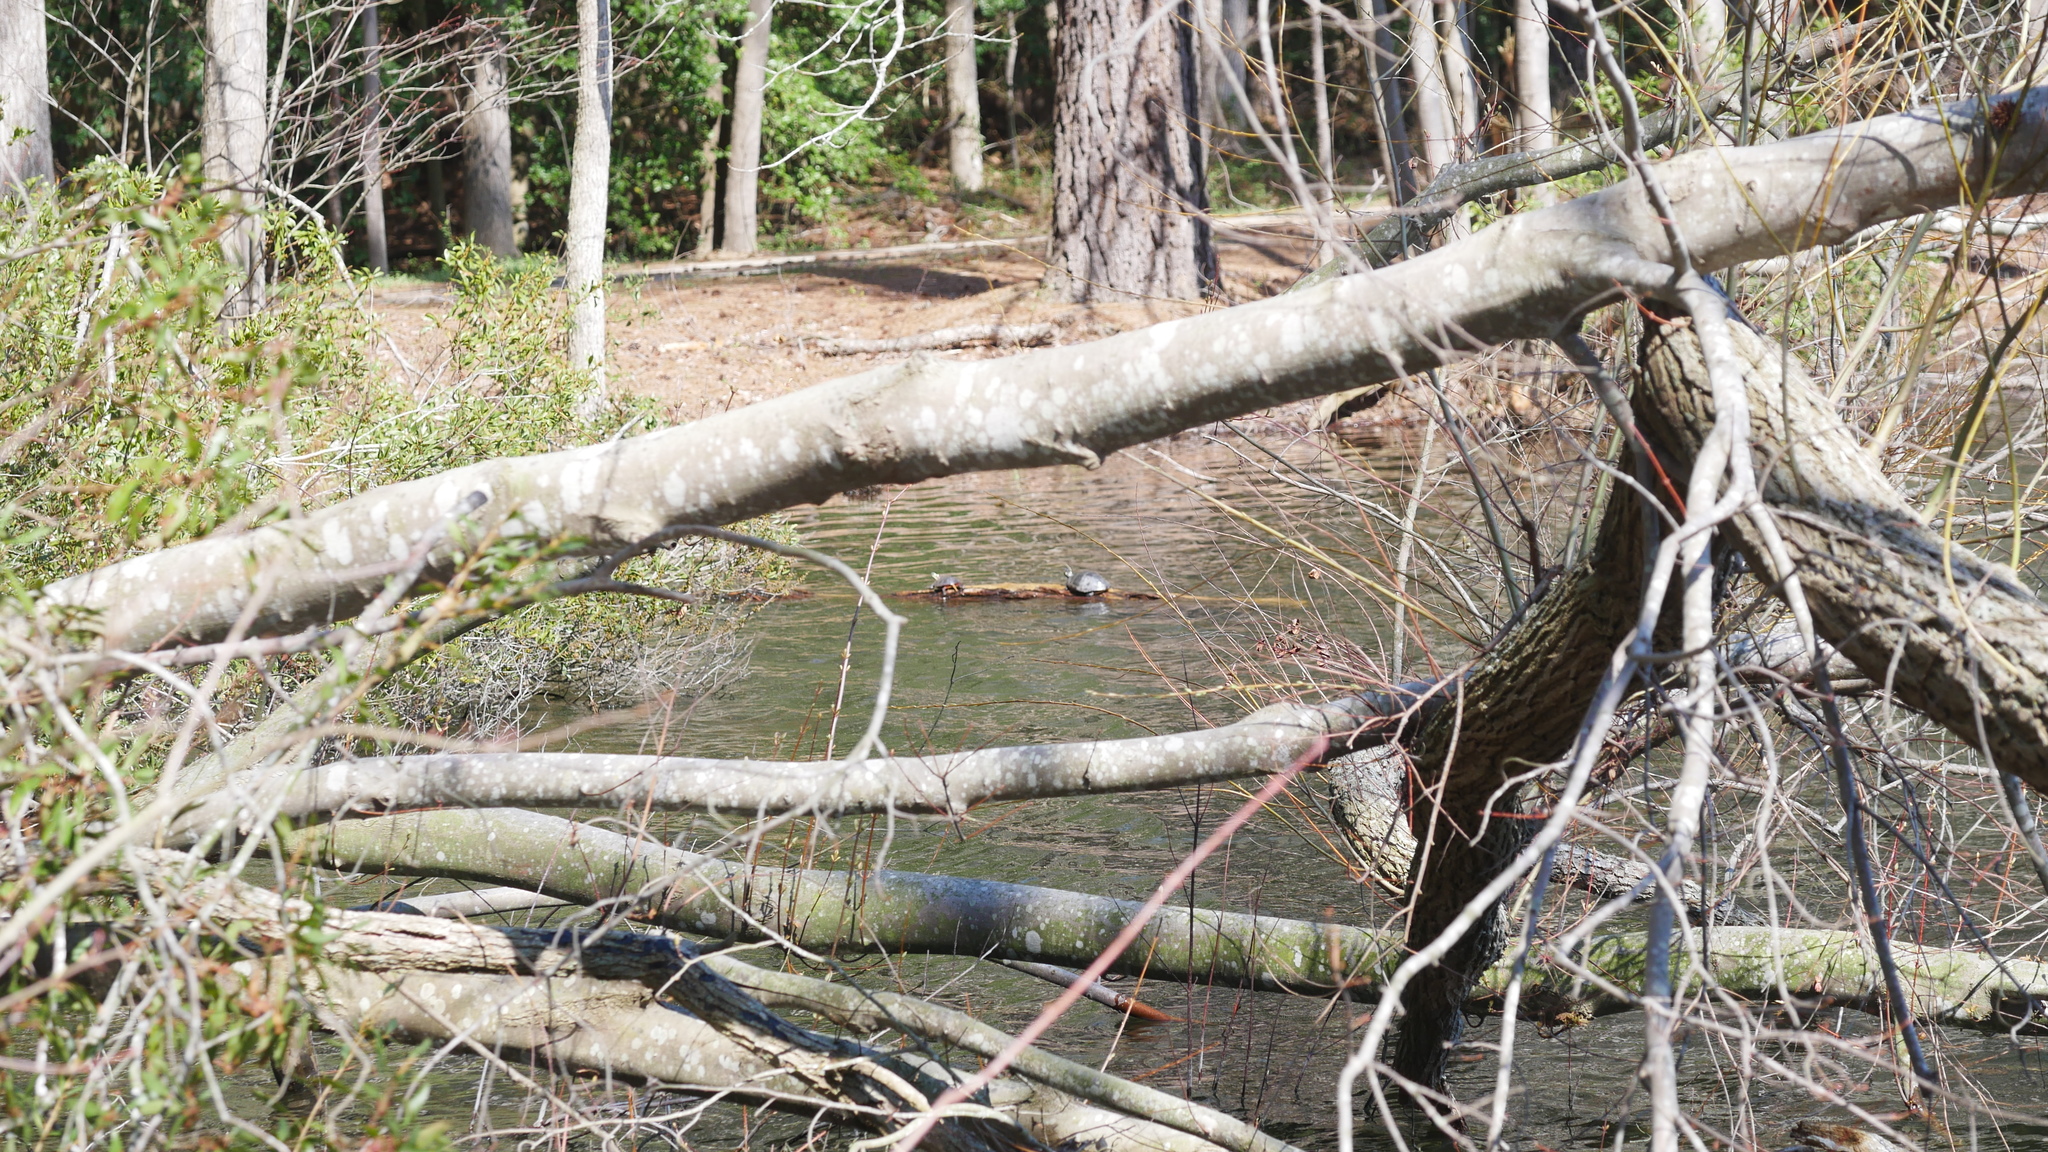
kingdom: Animalia
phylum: Chordata
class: Testudines
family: Emydidae
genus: Chrysemys
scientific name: Chrysemys picta
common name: Painted turtle
